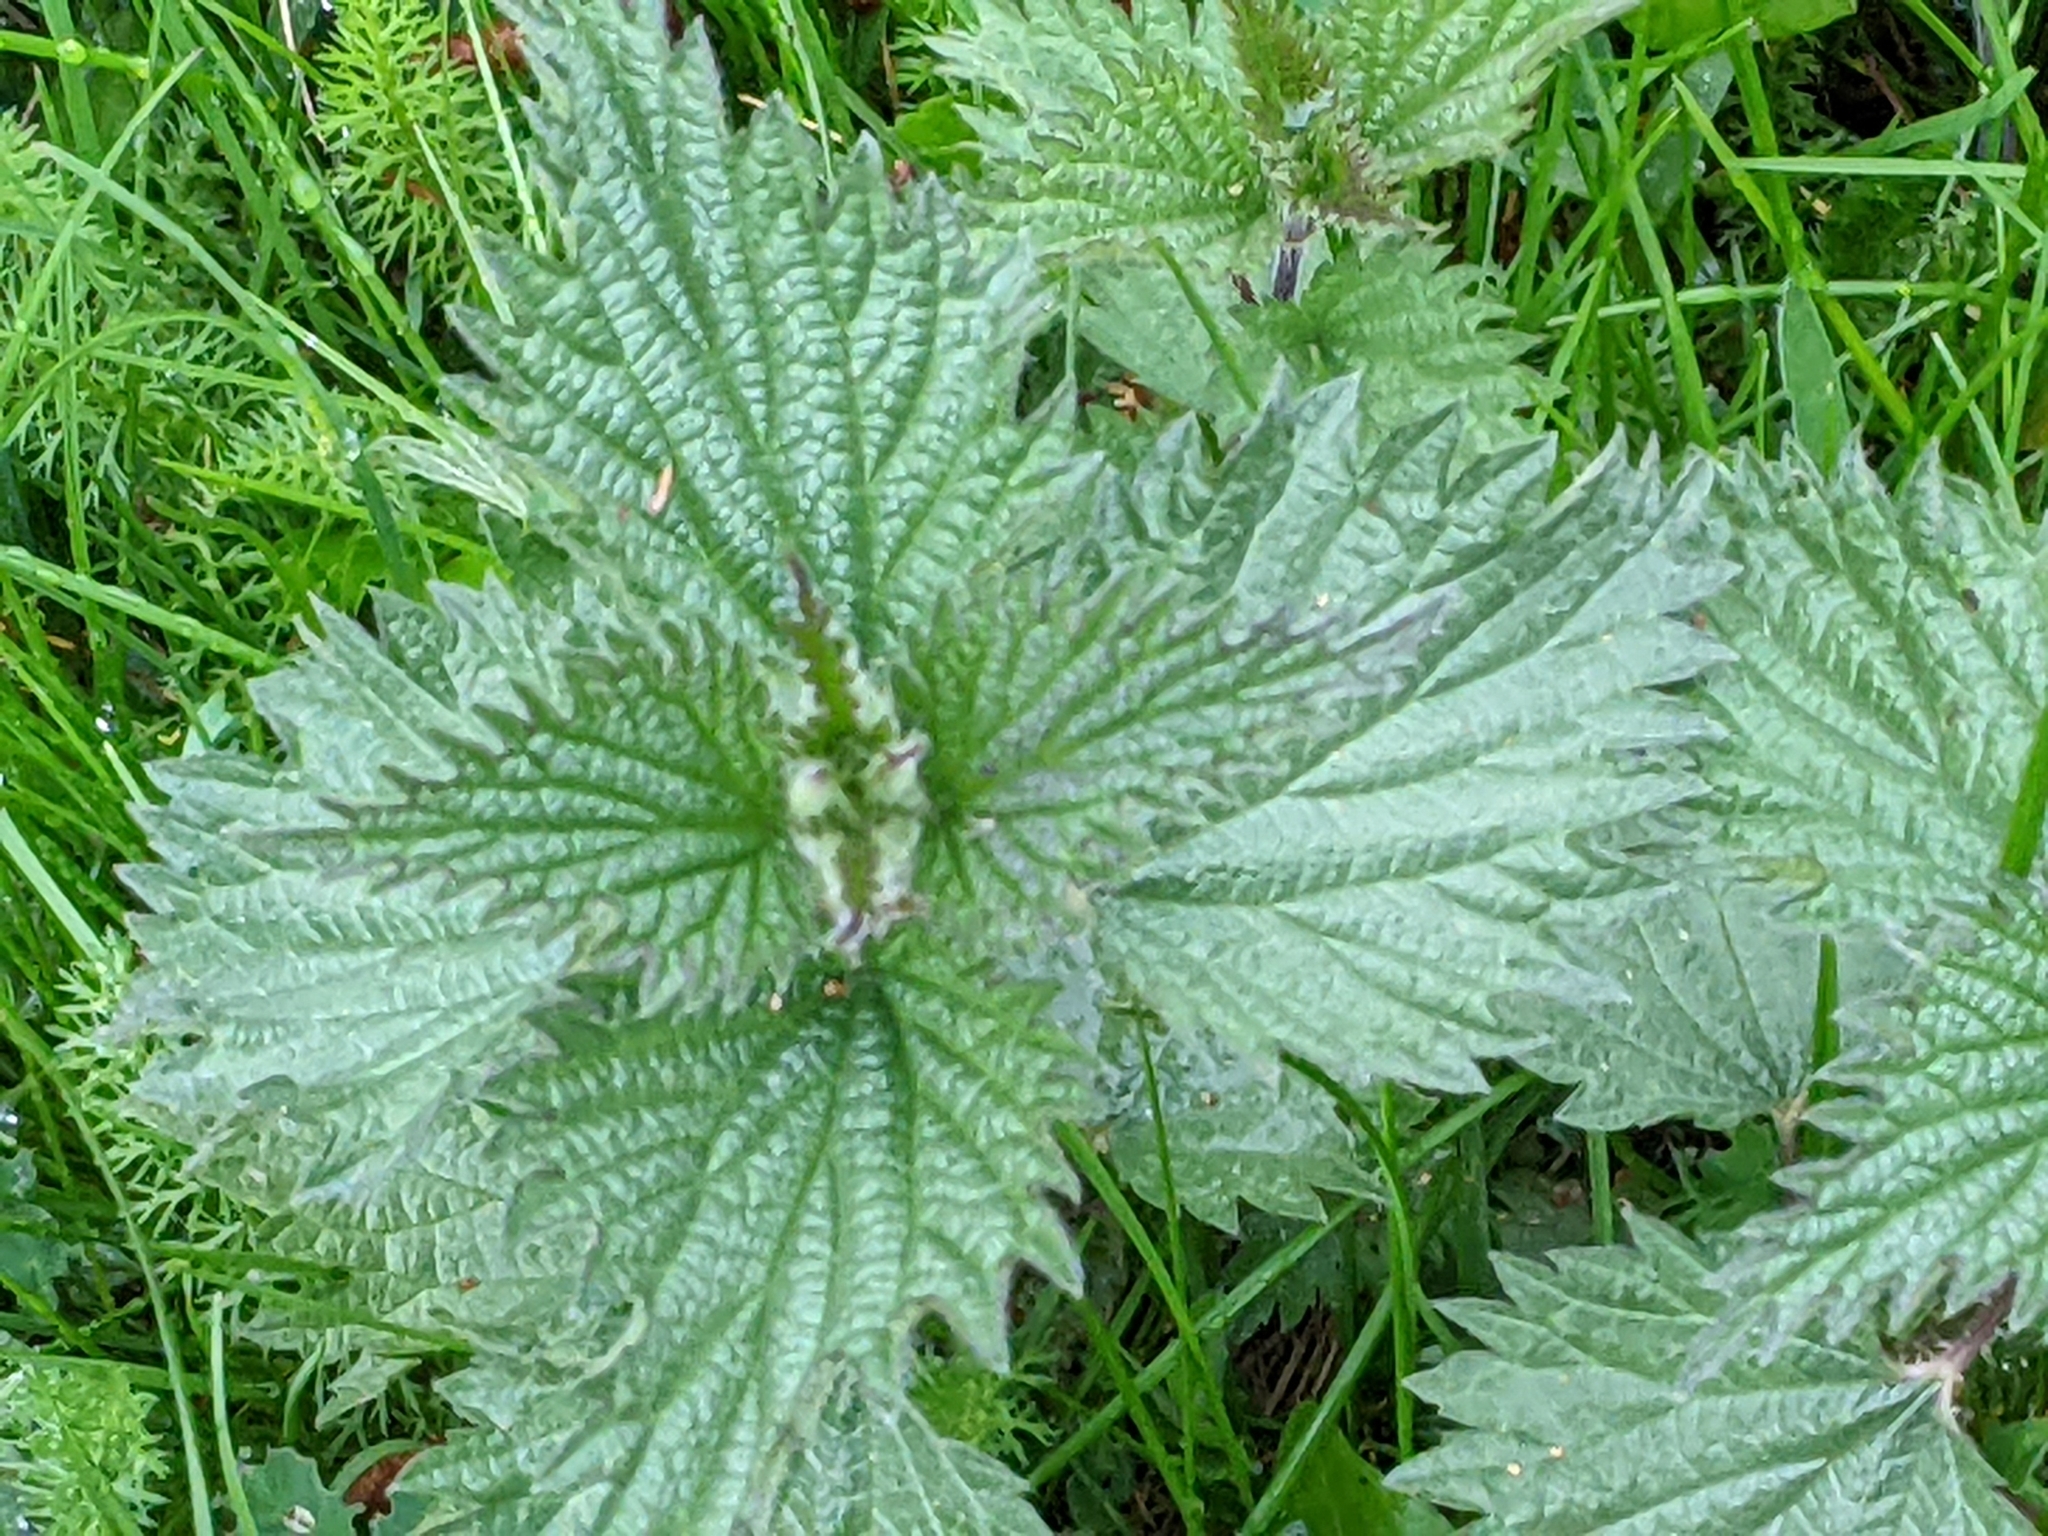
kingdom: Plantae
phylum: Tracheophyta
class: Magnoliopsida
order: Rosales
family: Urticaceae
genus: Urtica
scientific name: Urtica dioica
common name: Common nettle
